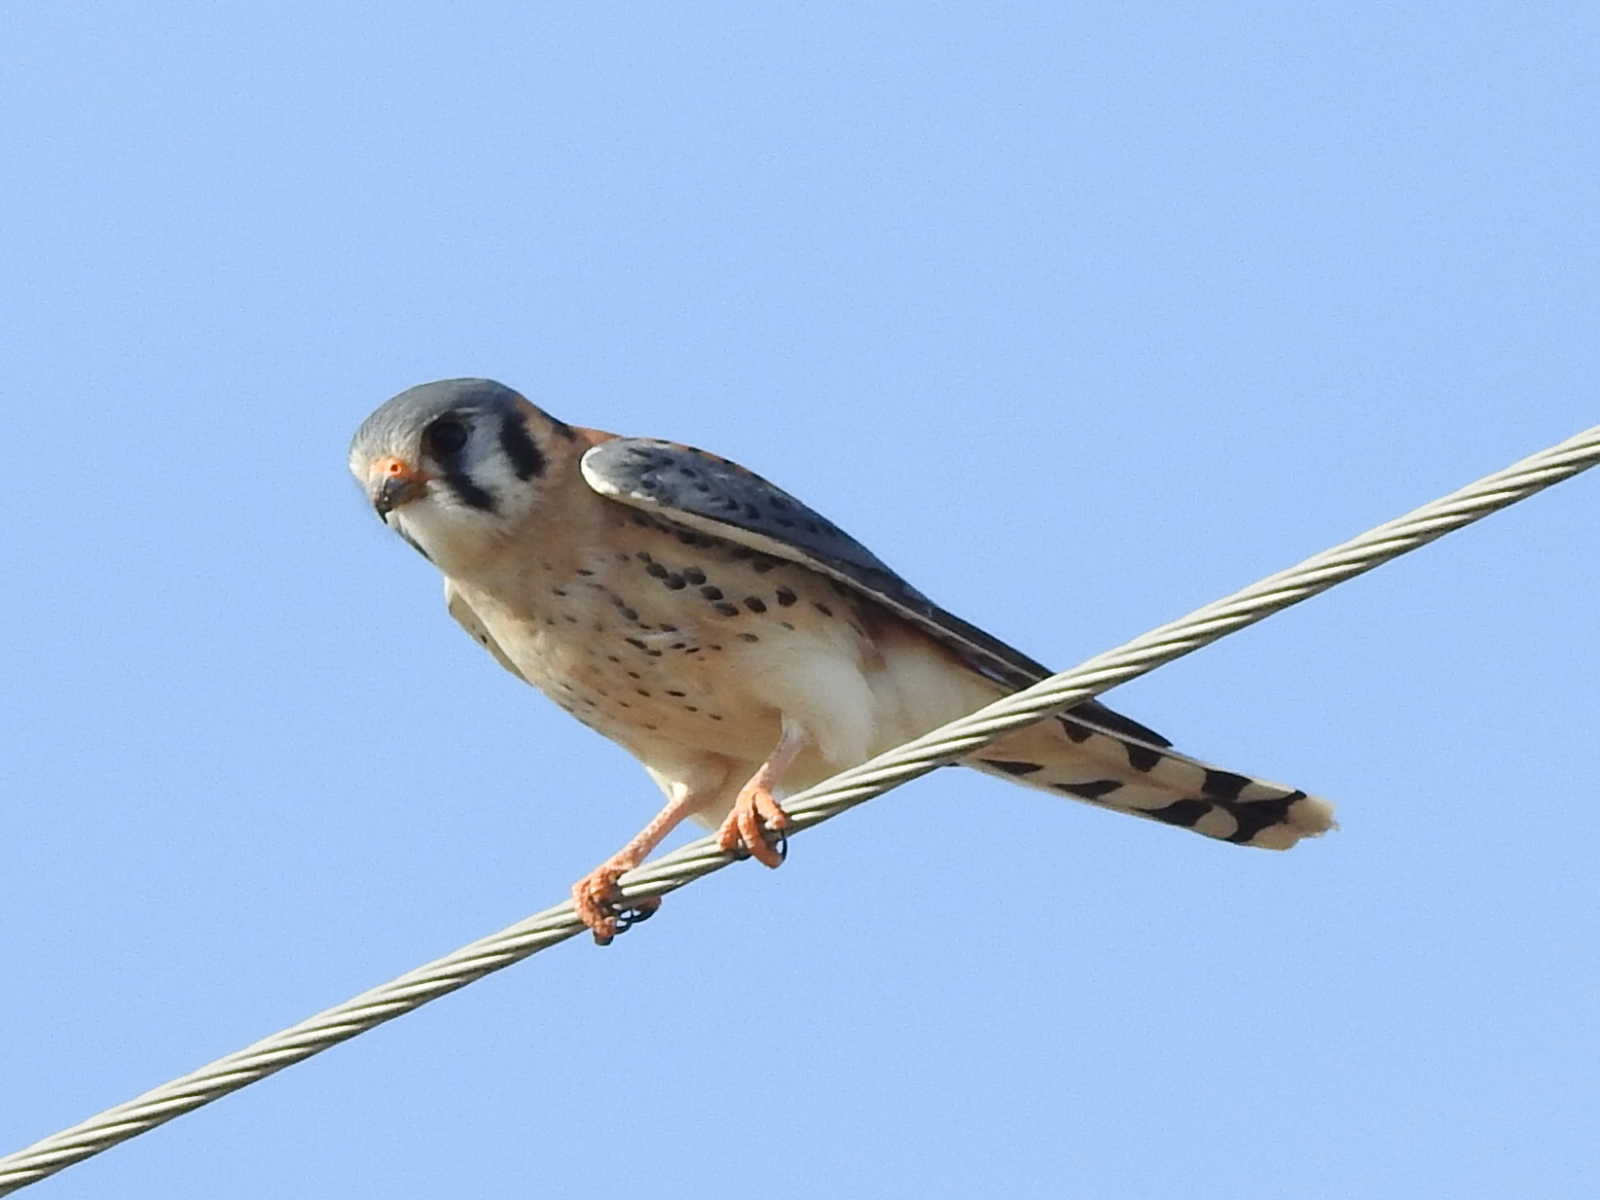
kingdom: Animalia
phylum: Chordata
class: Aves
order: Falconiformes
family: Falconidae
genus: Falco
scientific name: Falco sparverius
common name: American kestrel
